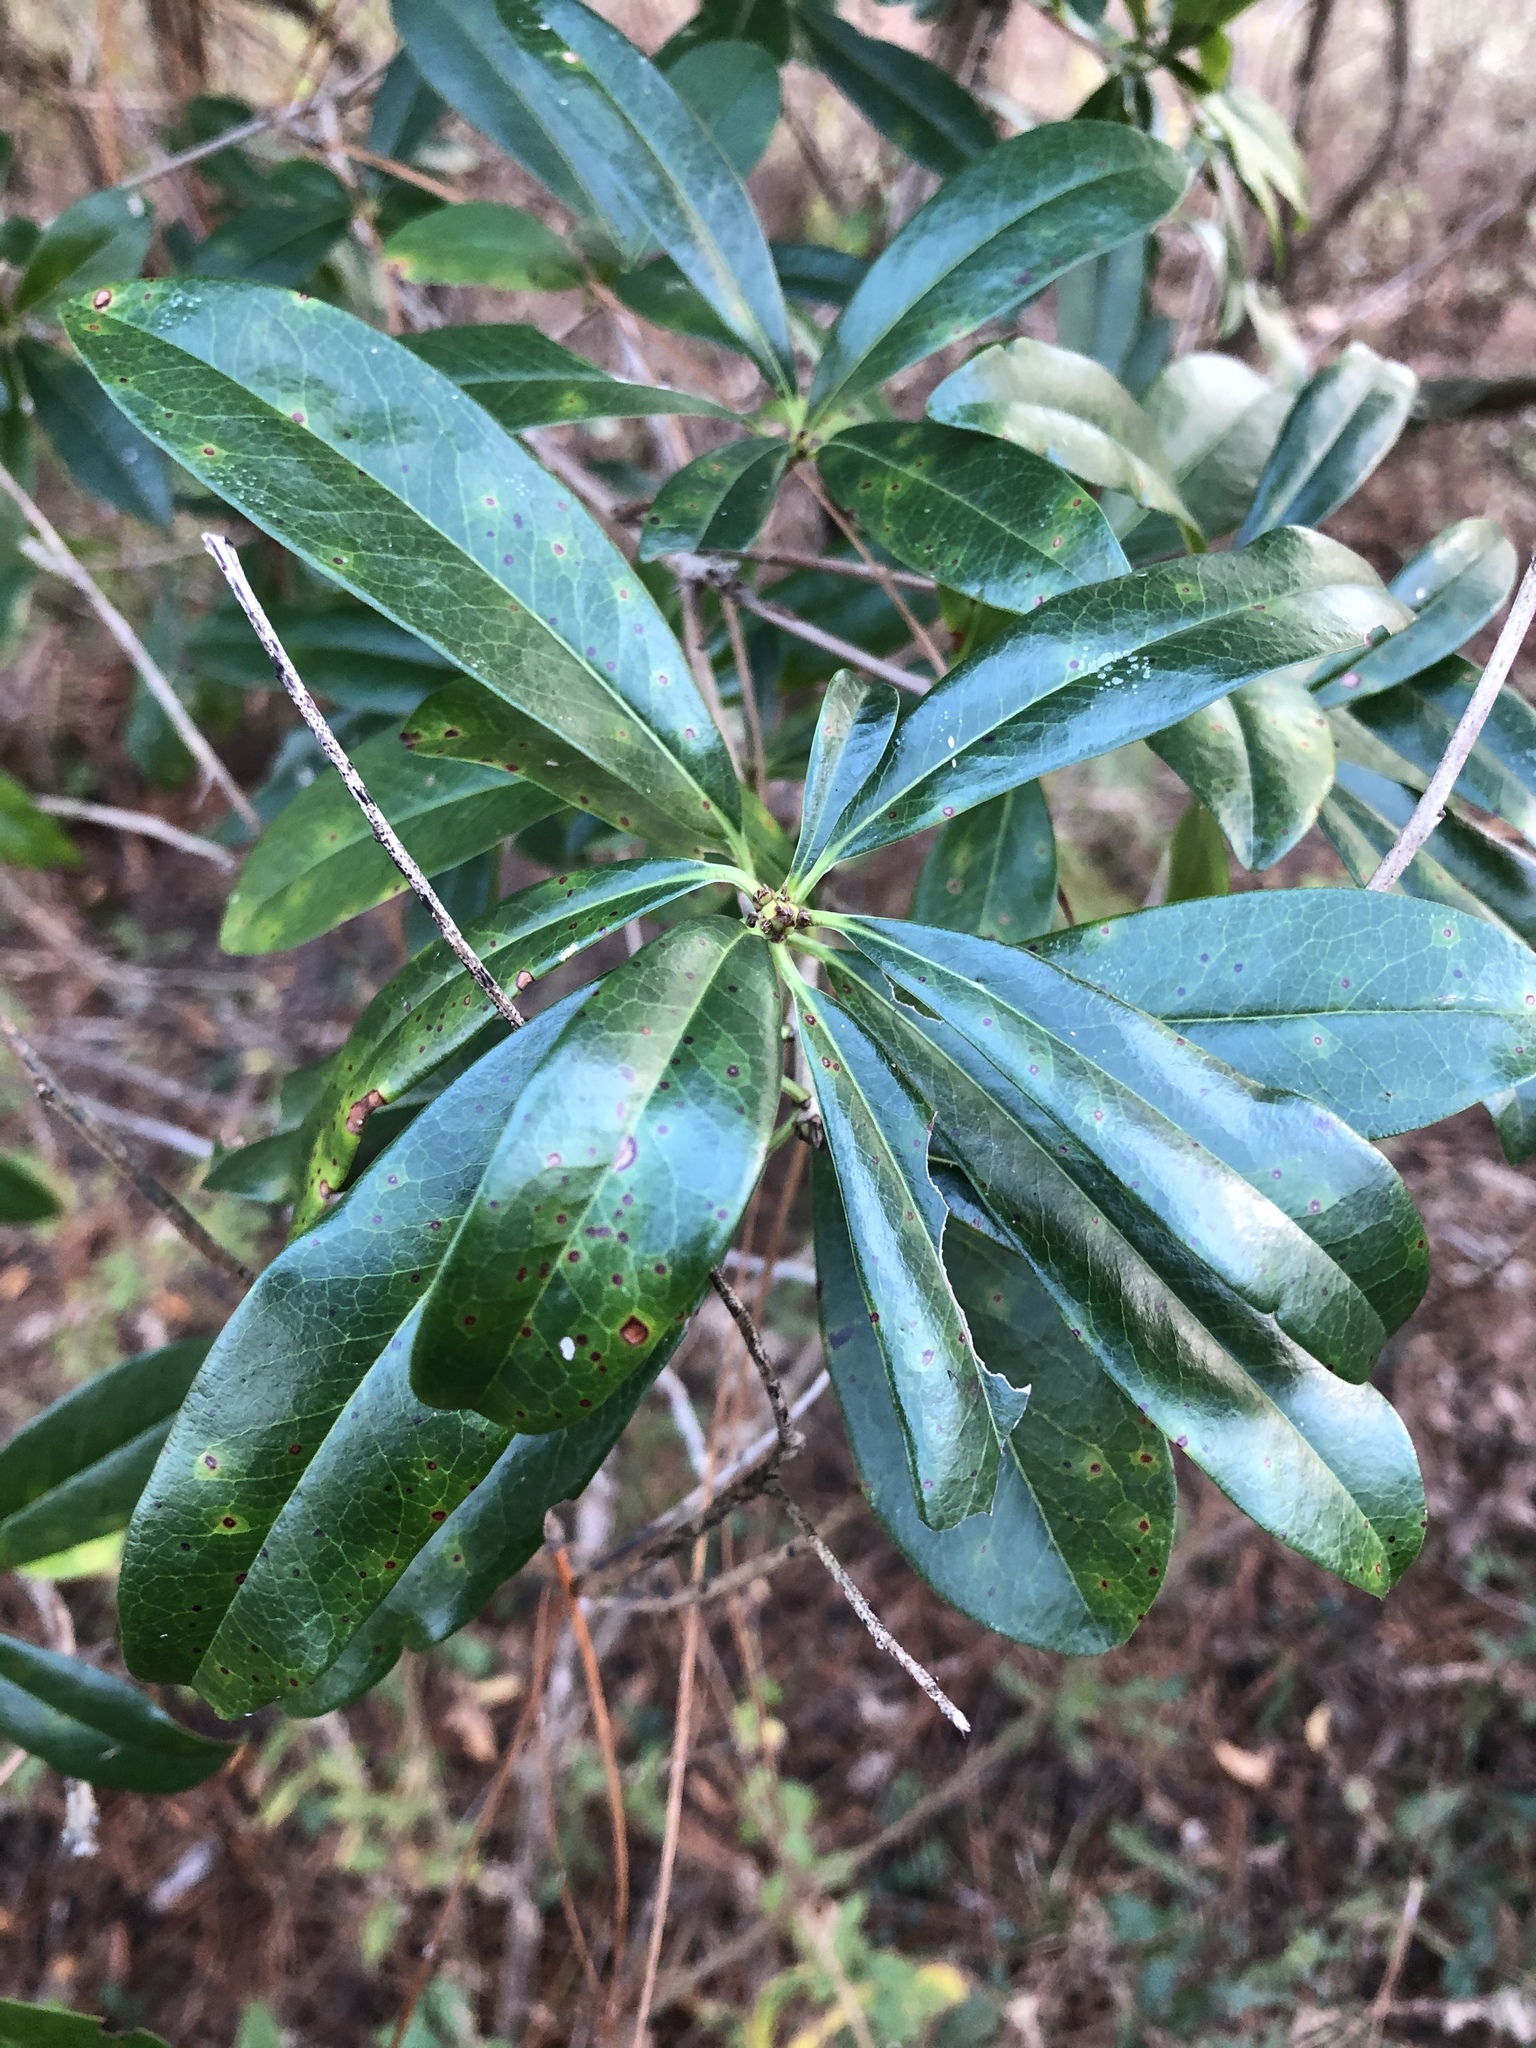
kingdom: Plantae
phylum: Tracheophyta
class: Magnoliopsida
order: Ericales
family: Cyrillaceae
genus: Cyrilla
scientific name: Cyrilla racemiflora
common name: Black titi
